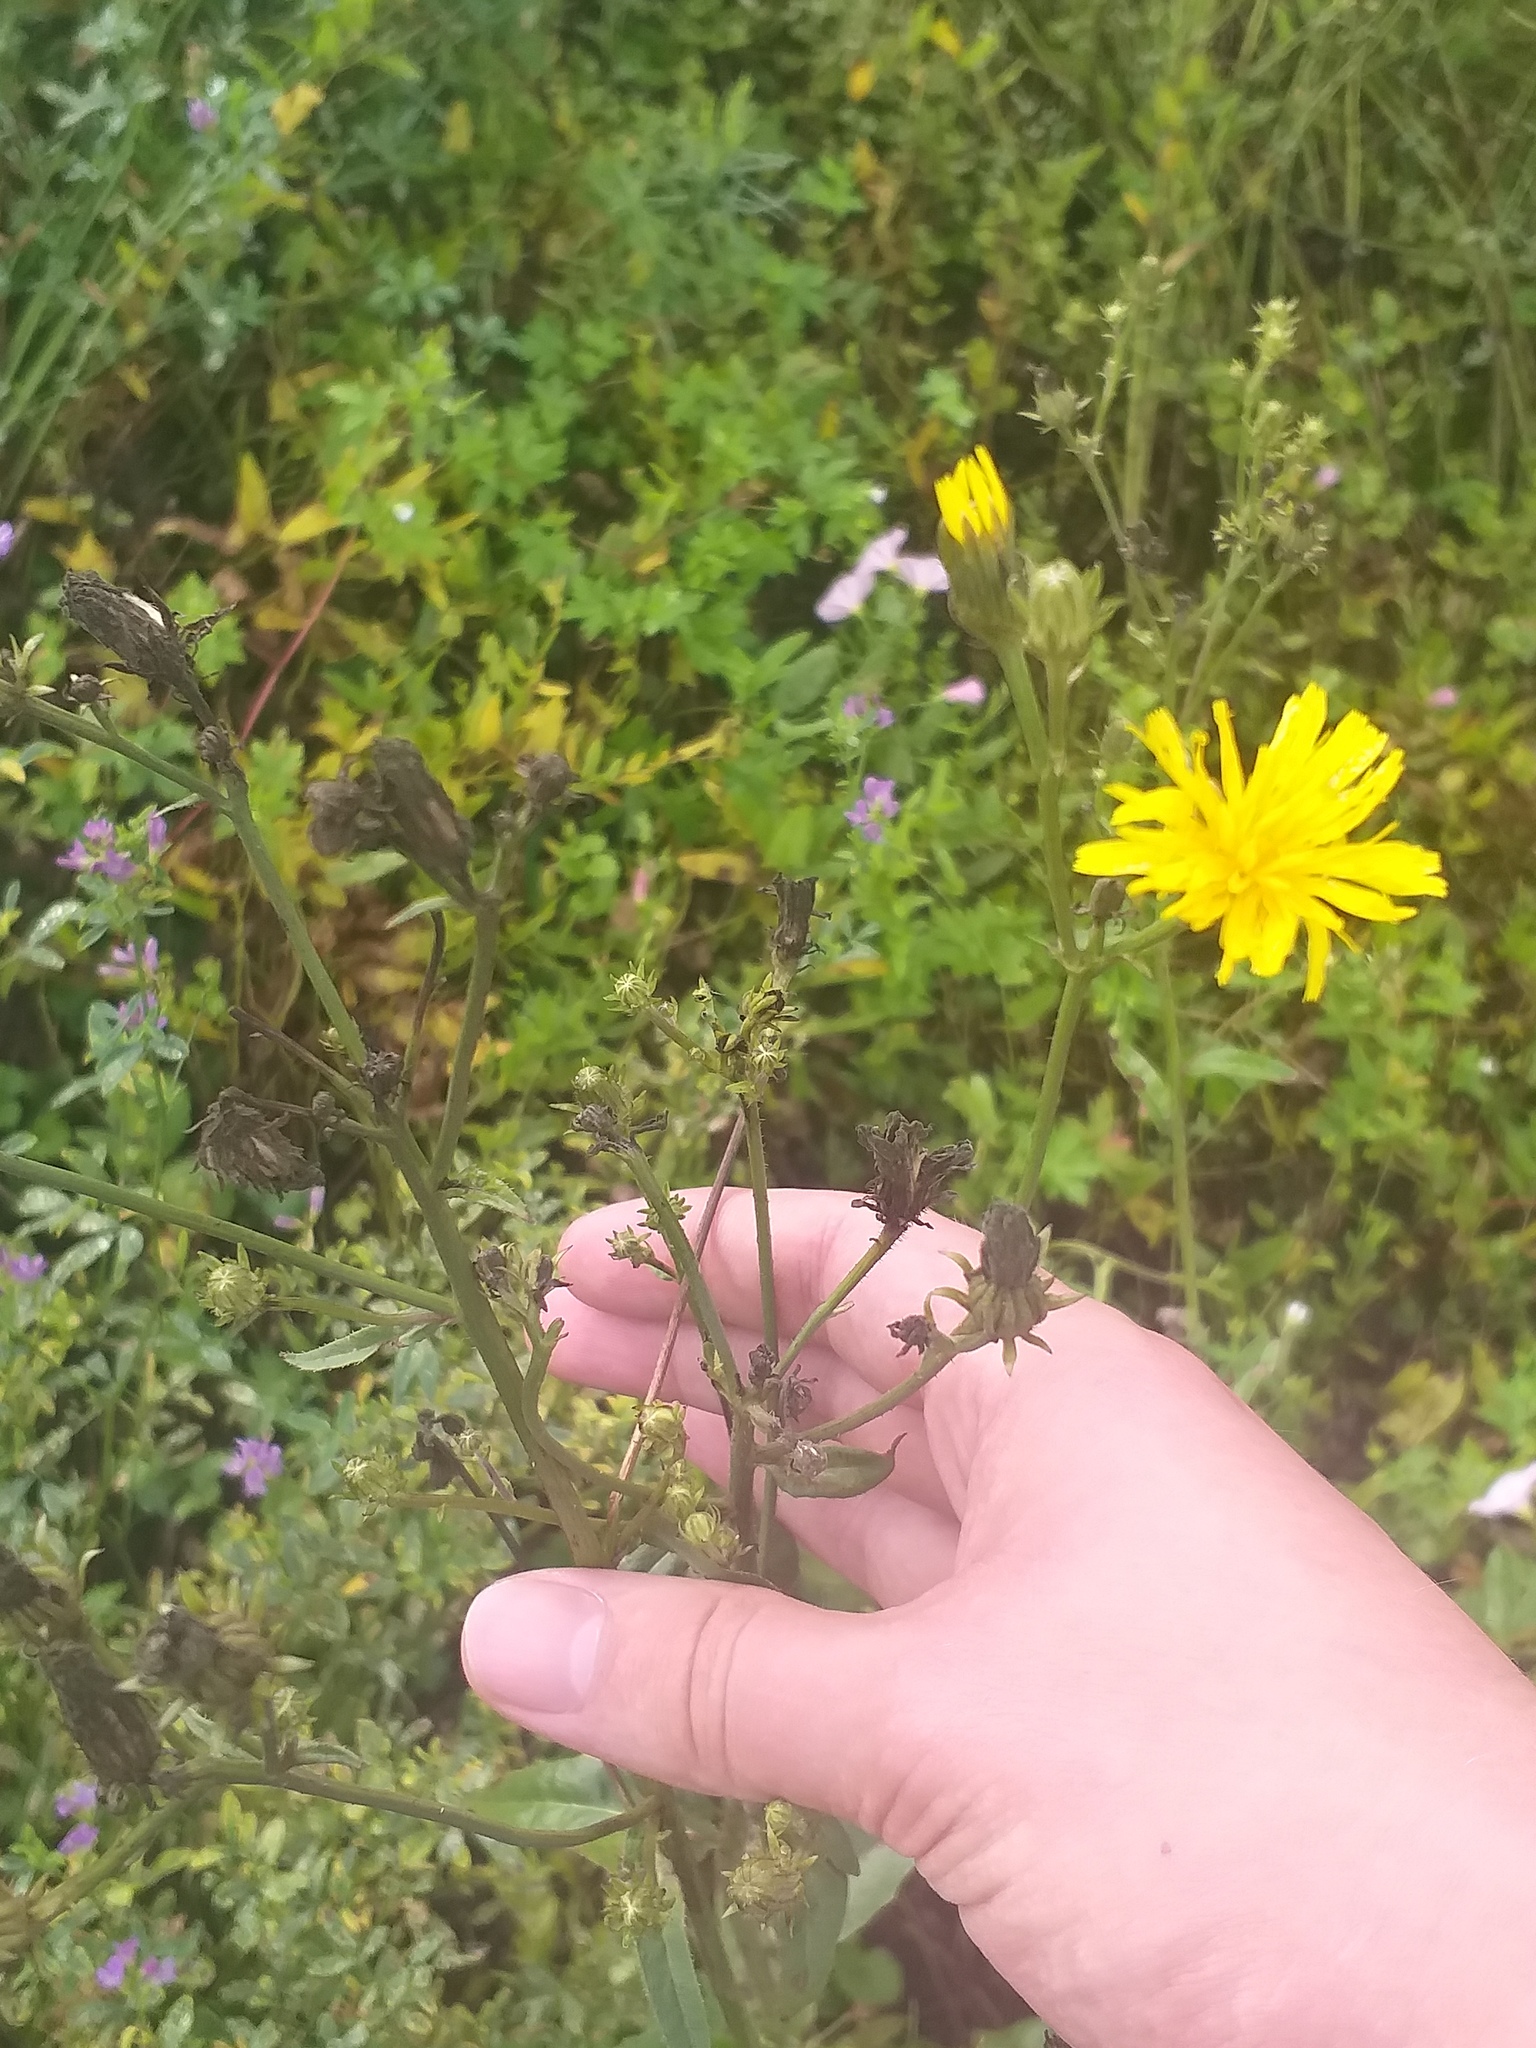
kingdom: Plantae
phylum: Tracheophyta
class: Magnoliopsida
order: Asterales
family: Asteraceae
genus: Picris
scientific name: Picris hieracioides
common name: Hawkweed oxtongue
